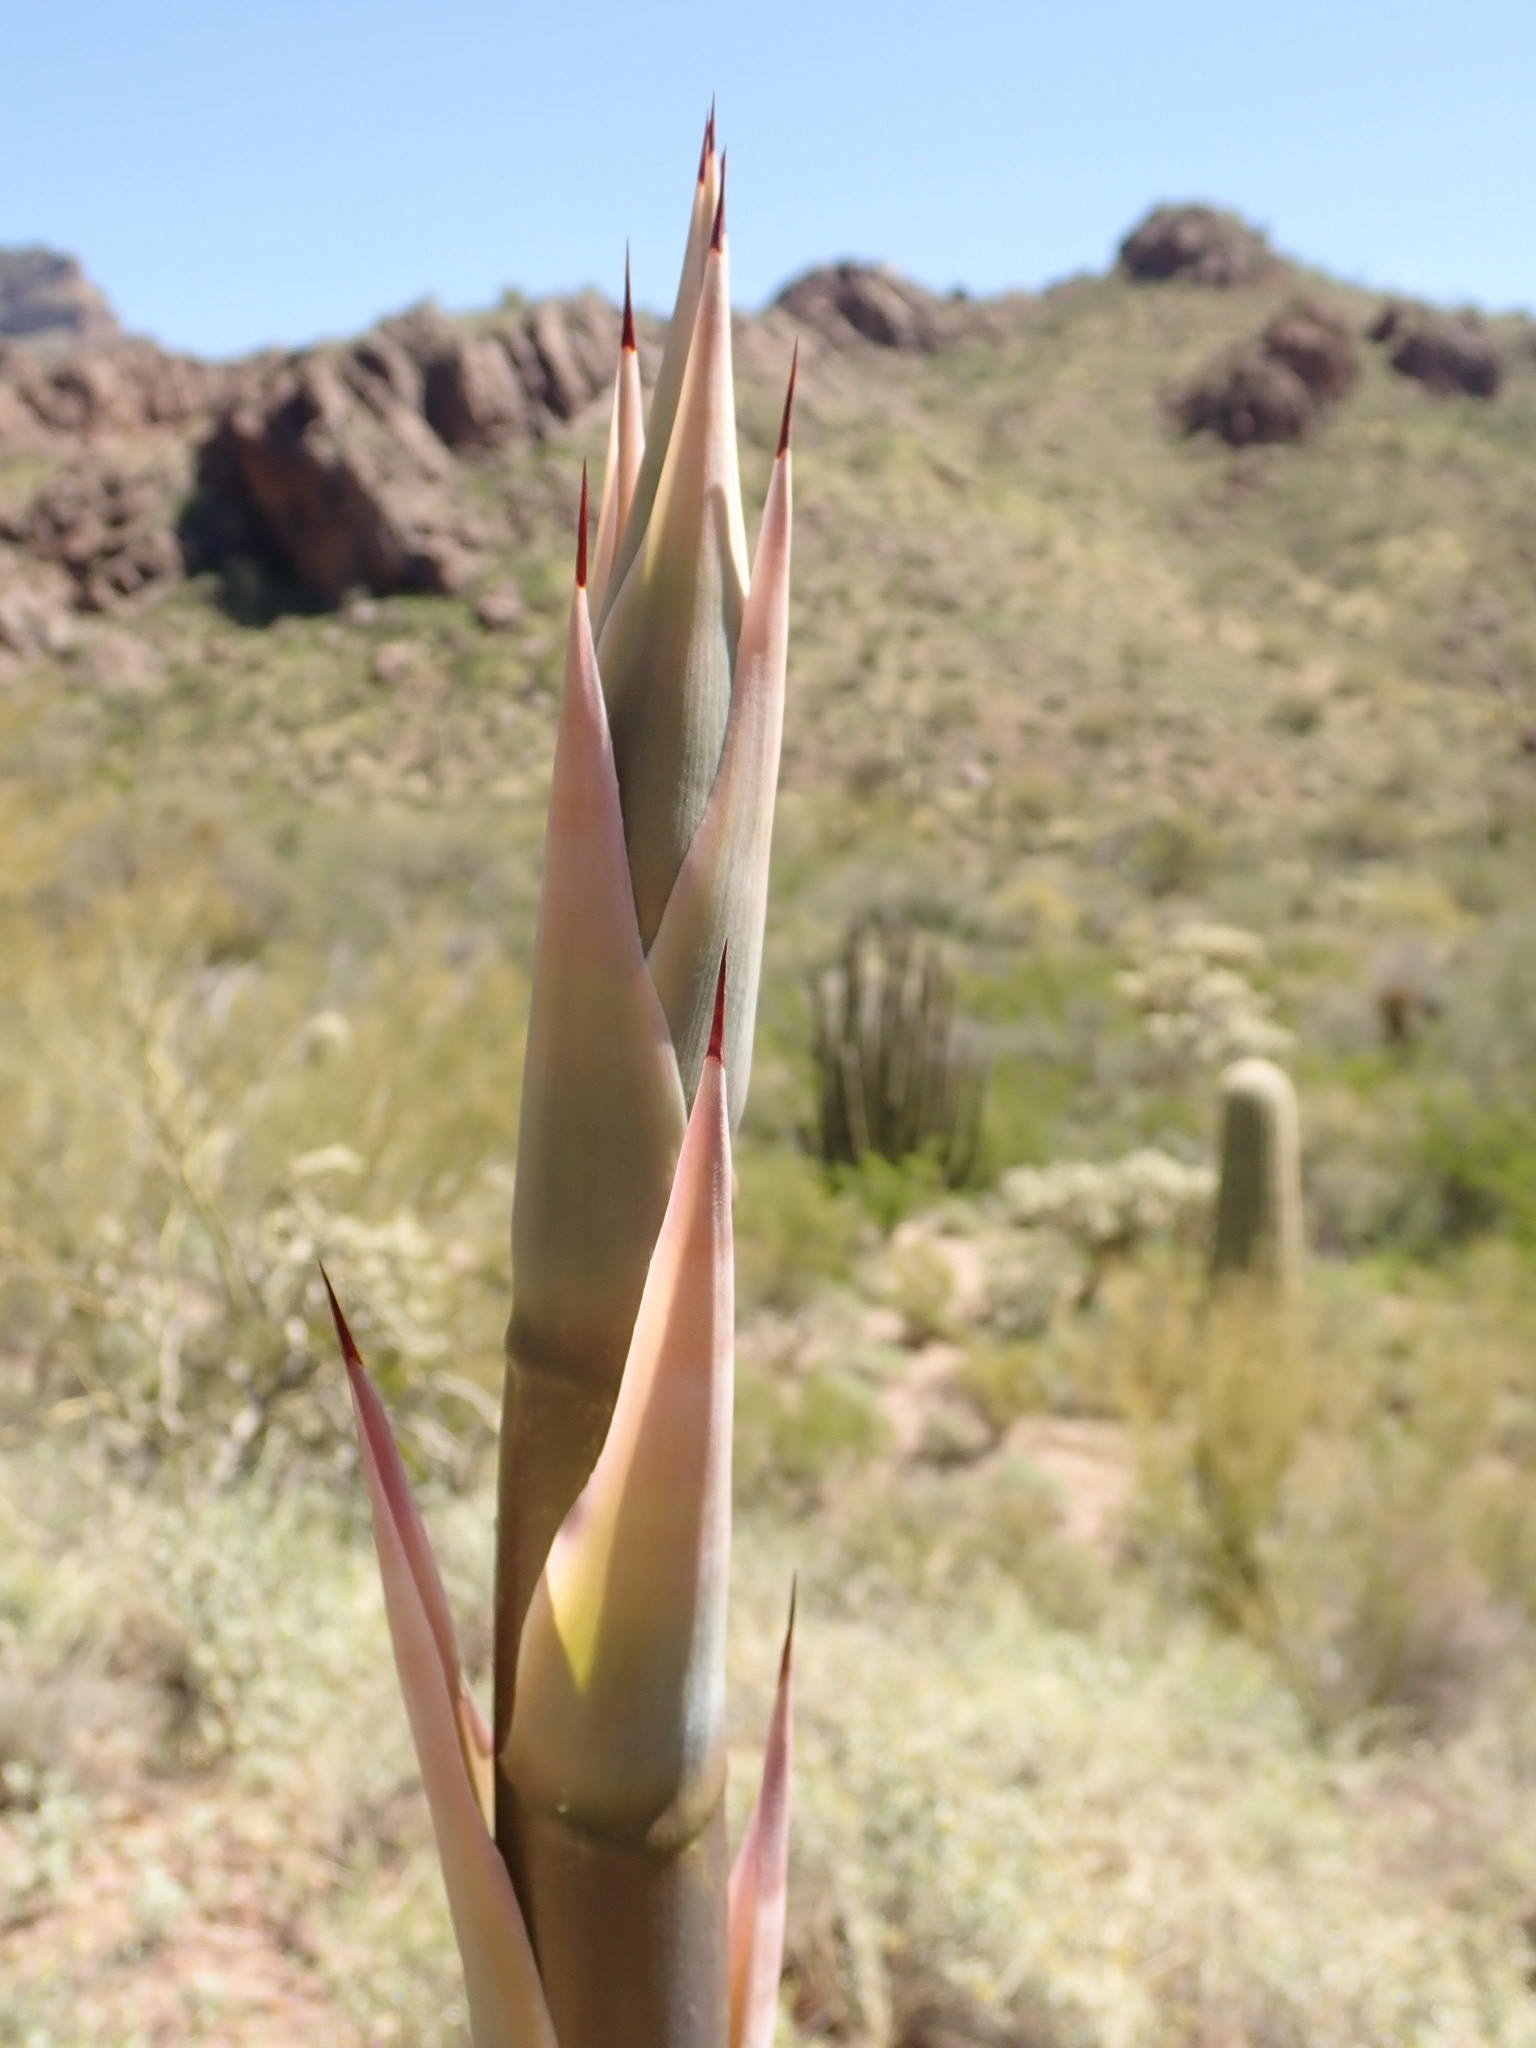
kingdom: Plantae
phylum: Tracheophyta
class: Liliopsida
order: Asparagales
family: Asparagaceae
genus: Agave
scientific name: Agave simplex
